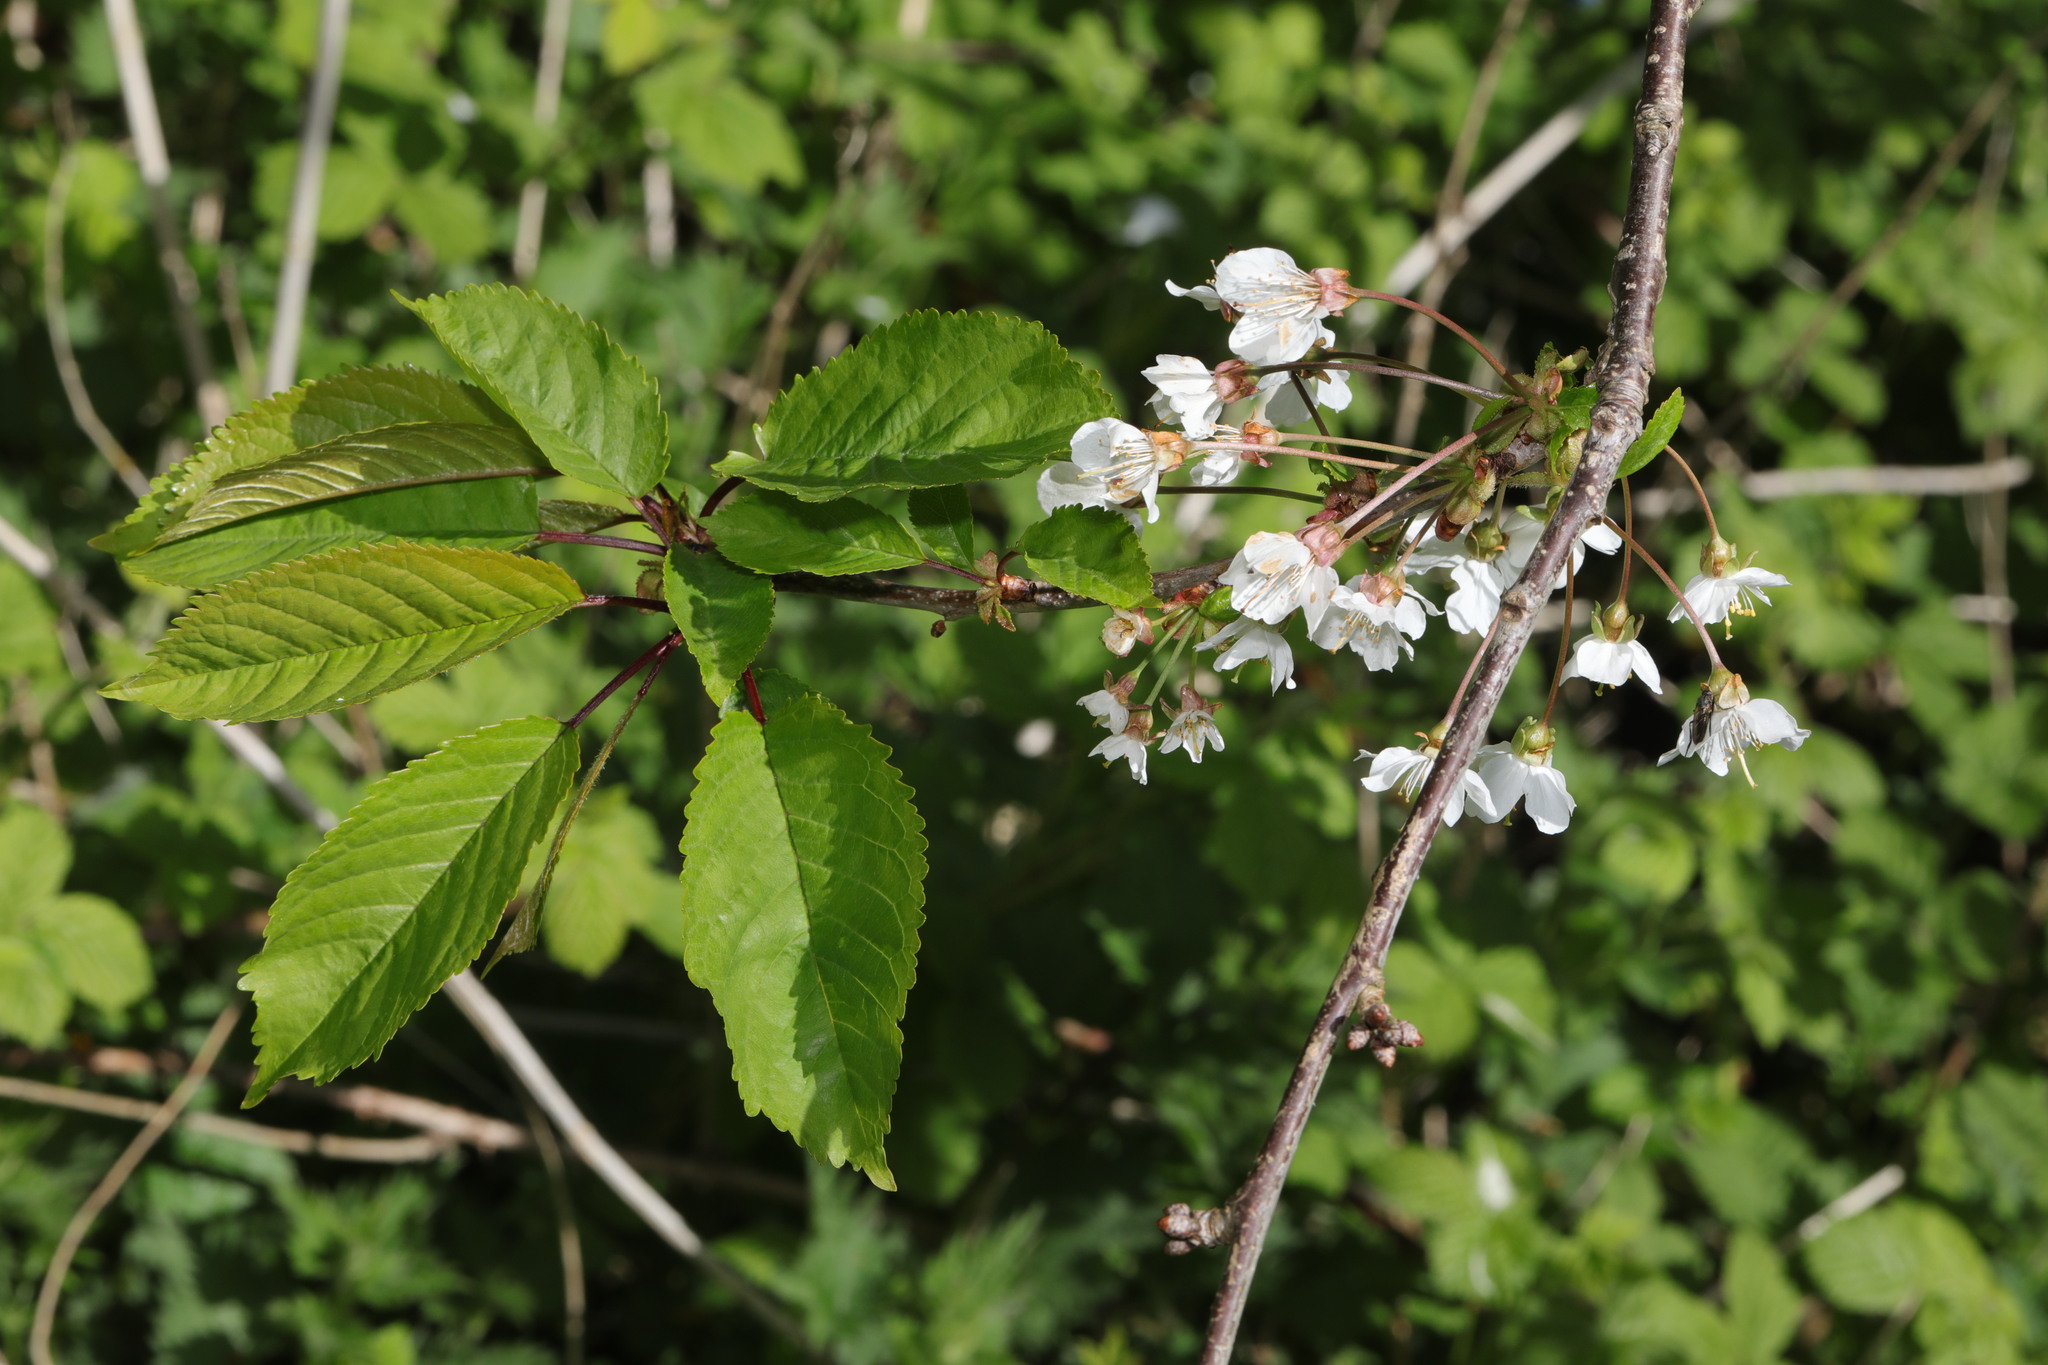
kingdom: Plantae
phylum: Tracheophyta
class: Magnoliopsida
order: Rosales
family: Rosaceae
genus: Prunus
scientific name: Prunus avium
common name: Sweet cherry
